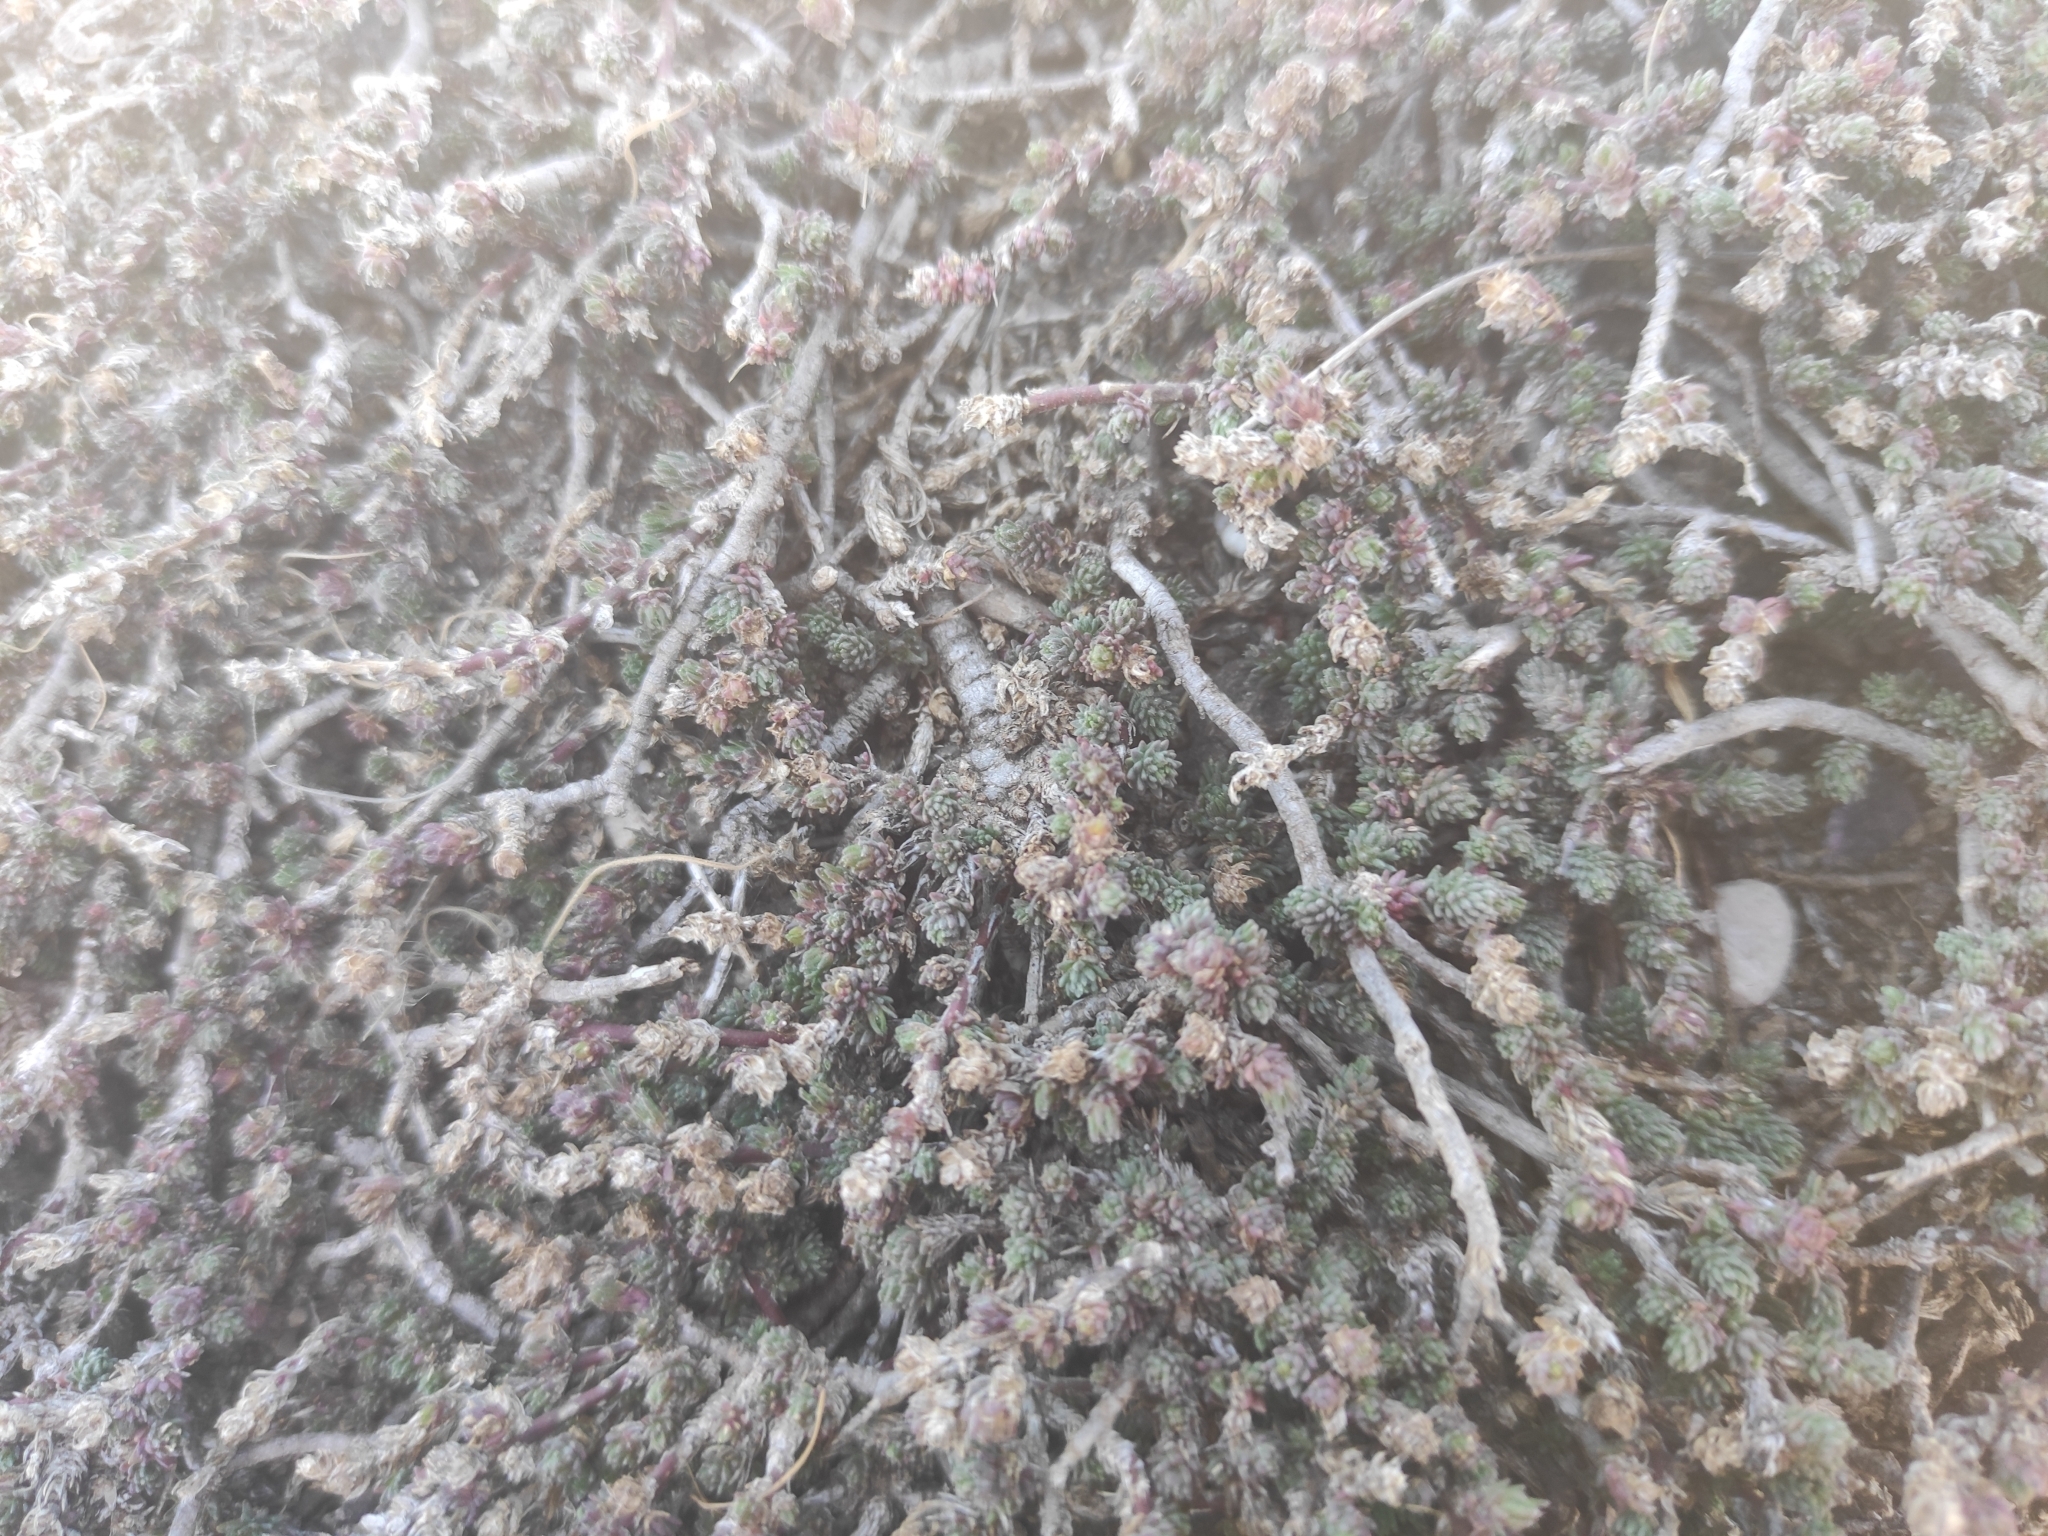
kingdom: Plantae
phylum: Tracheophyta
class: Magnoliopsida
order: Caryophyllales
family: Amaranthaceae
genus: Camphorosma
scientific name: Camphorosma monspeliaca
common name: Camphorfume
